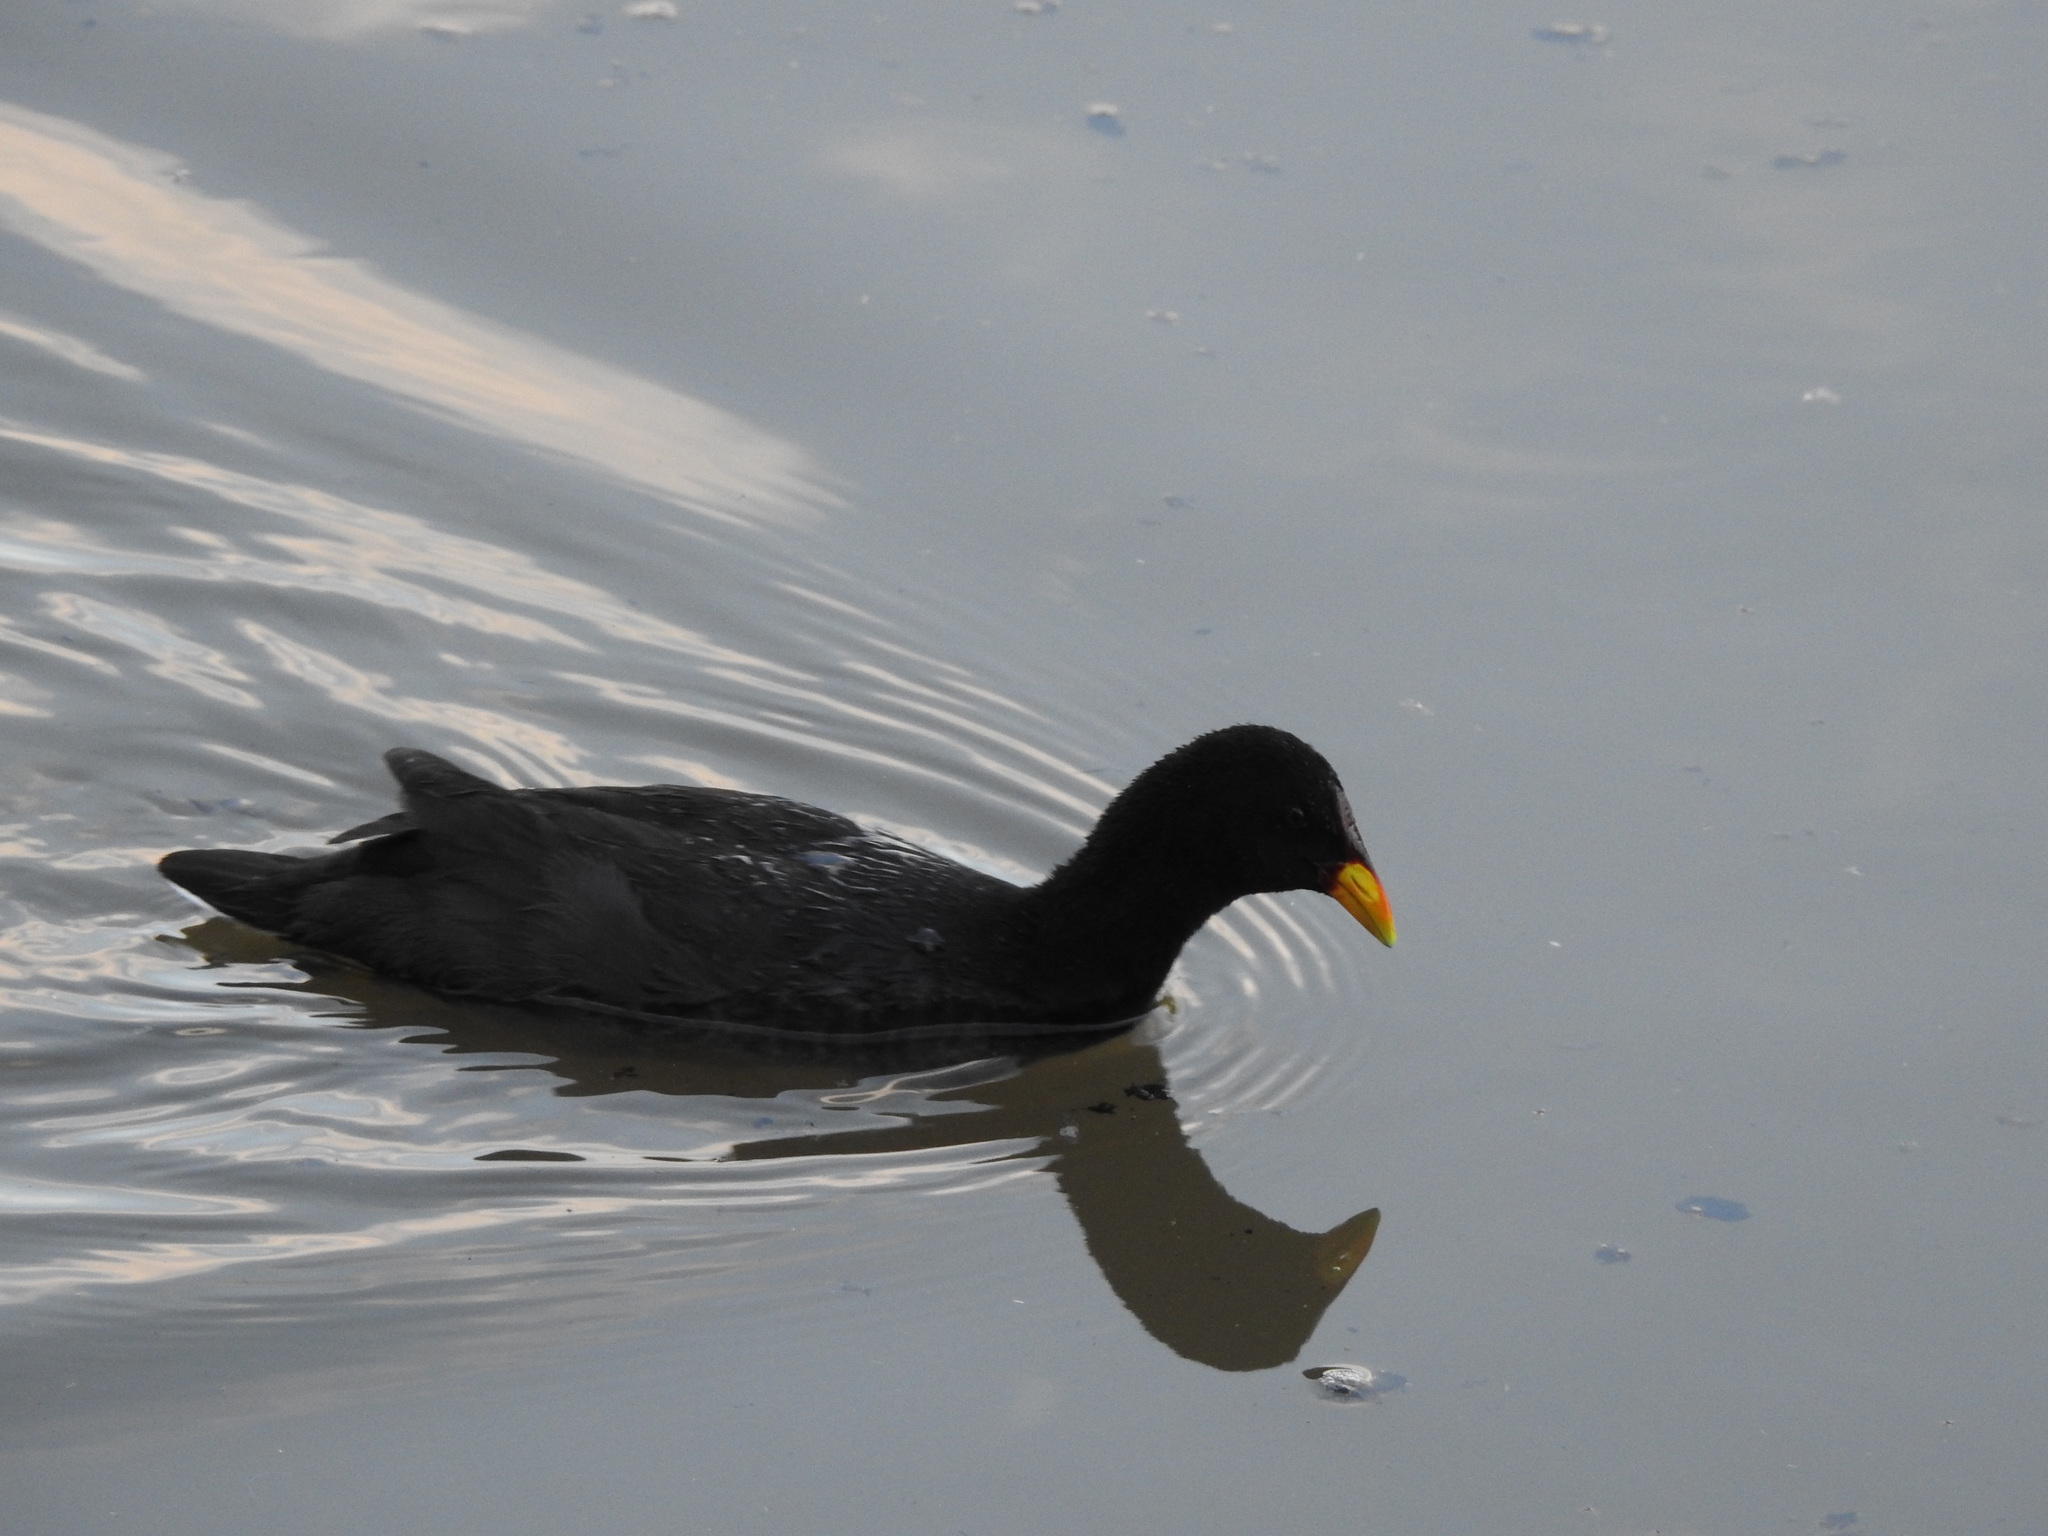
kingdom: Animalia
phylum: Chordata
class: Aves
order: Gruiformes
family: Rallidae
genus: Fulica
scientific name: Fulica rufifrons
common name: Red-fronted coot
